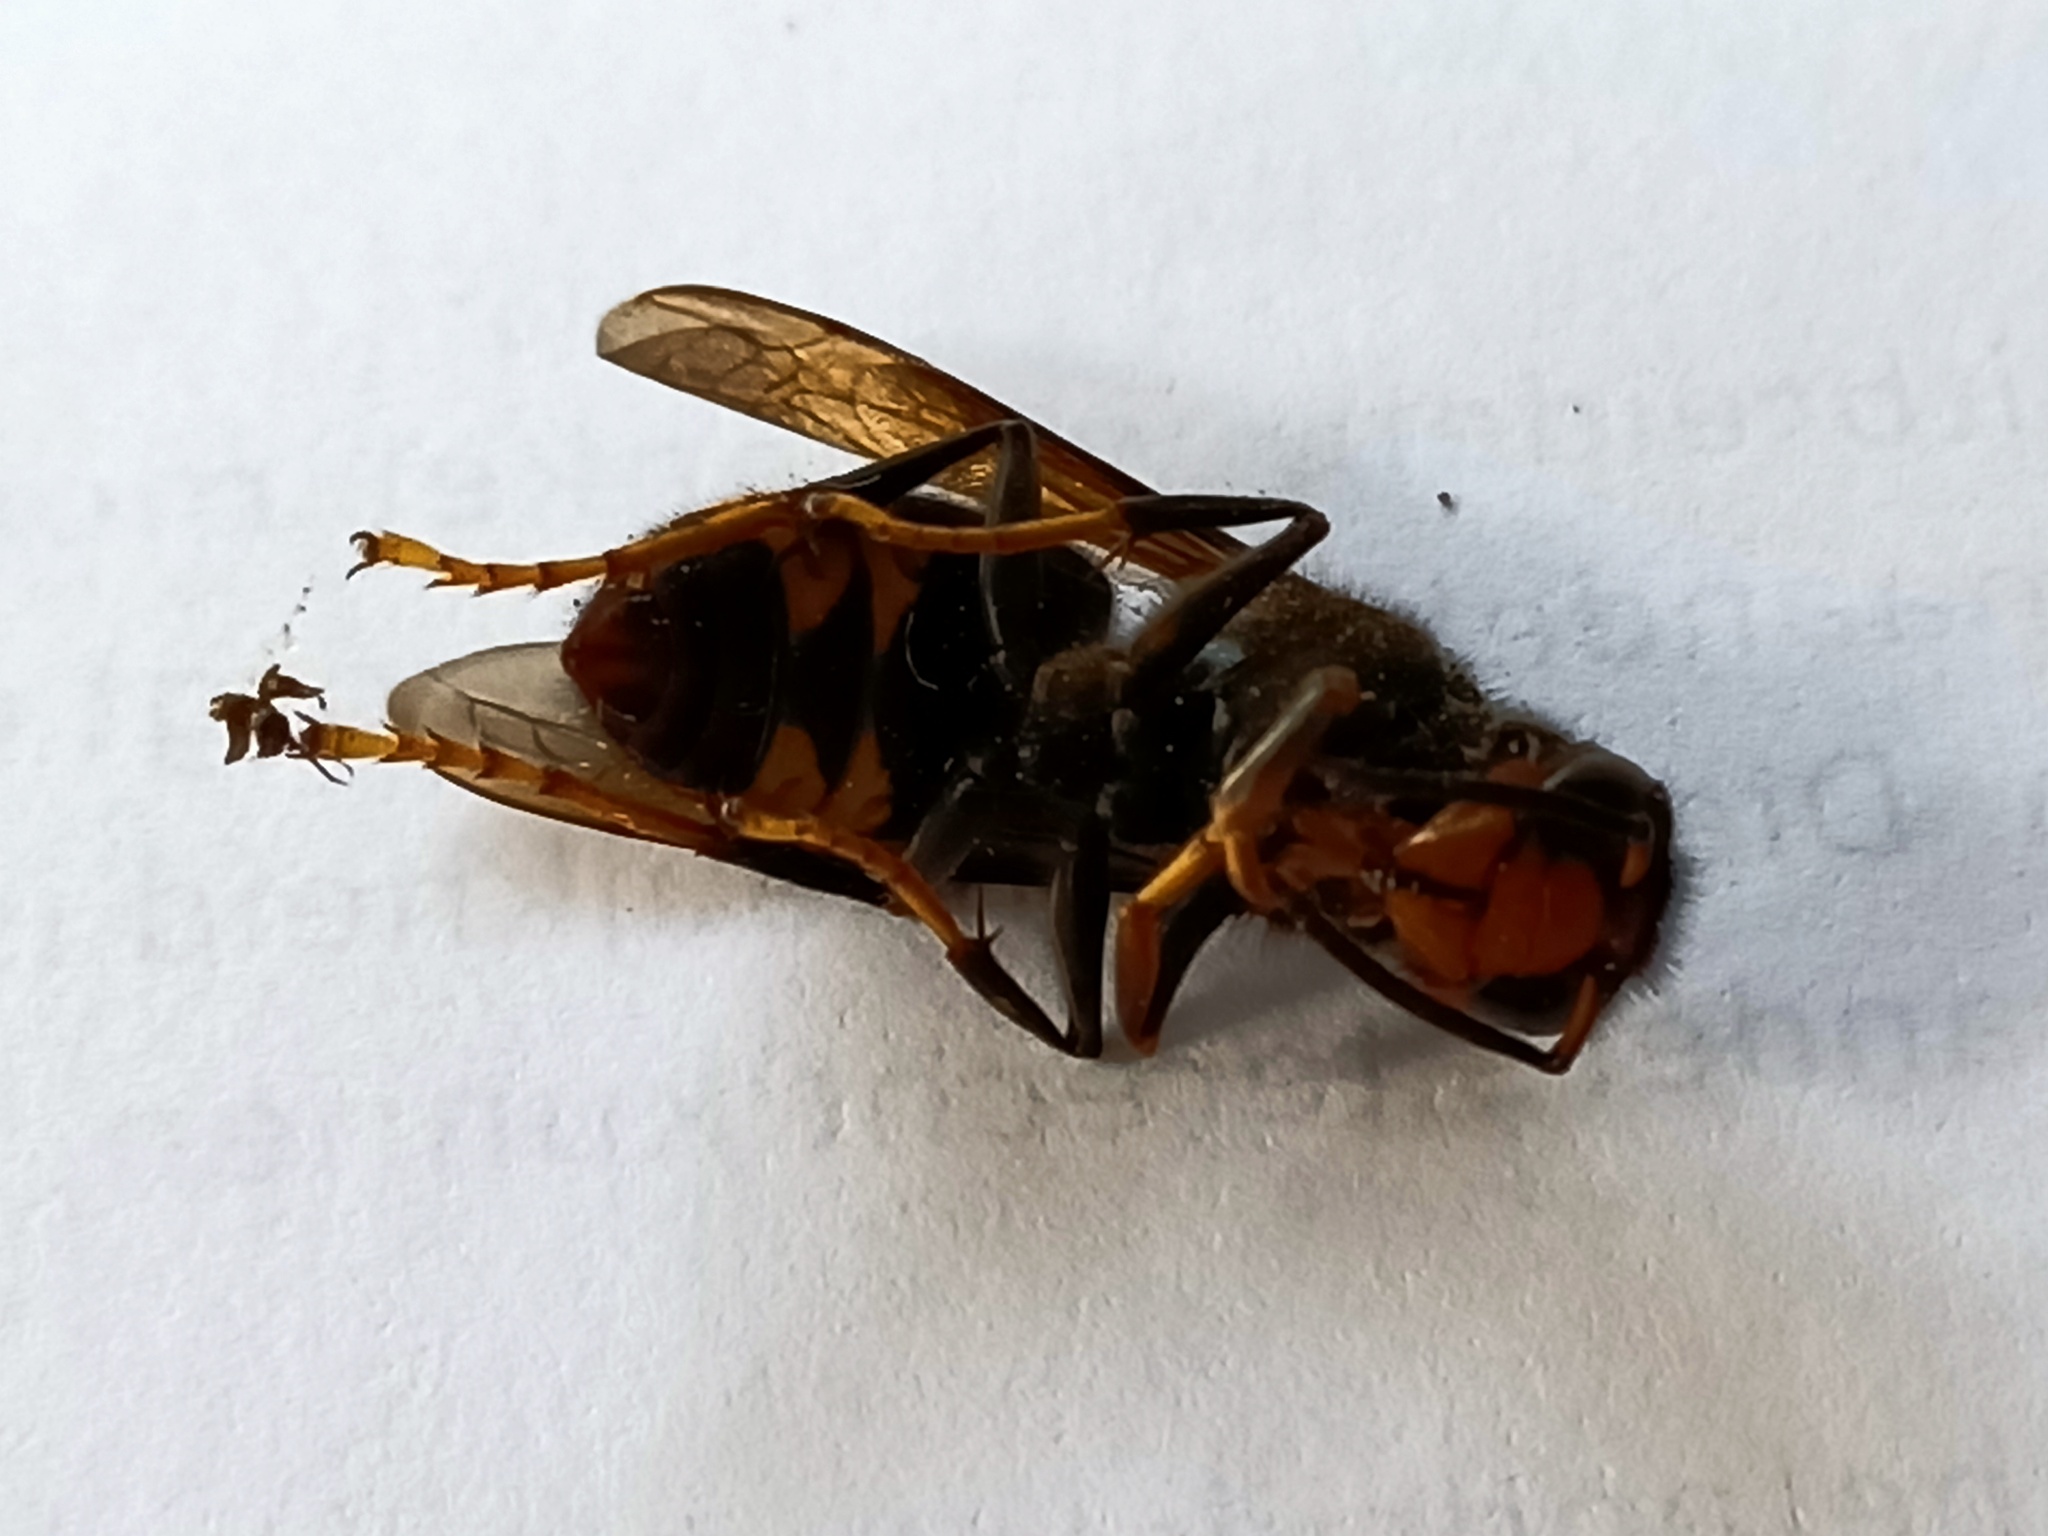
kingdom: Animalia
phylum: Arthropoda
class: Insecta
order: Hymenoptera
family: Vespidae
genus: Vespa
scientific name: Vespa velutina
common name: Asian hornet
